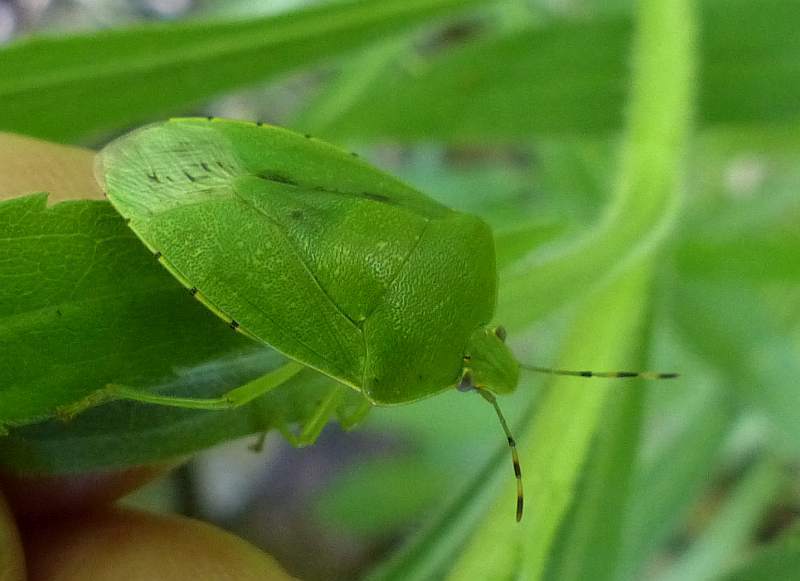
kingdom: Animalia
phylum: Arthropoda
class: Insecta
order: Hemiptera
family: Pentatomidae
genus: Chinavia
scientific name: Chinavia hilaris
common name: Green stink bug
